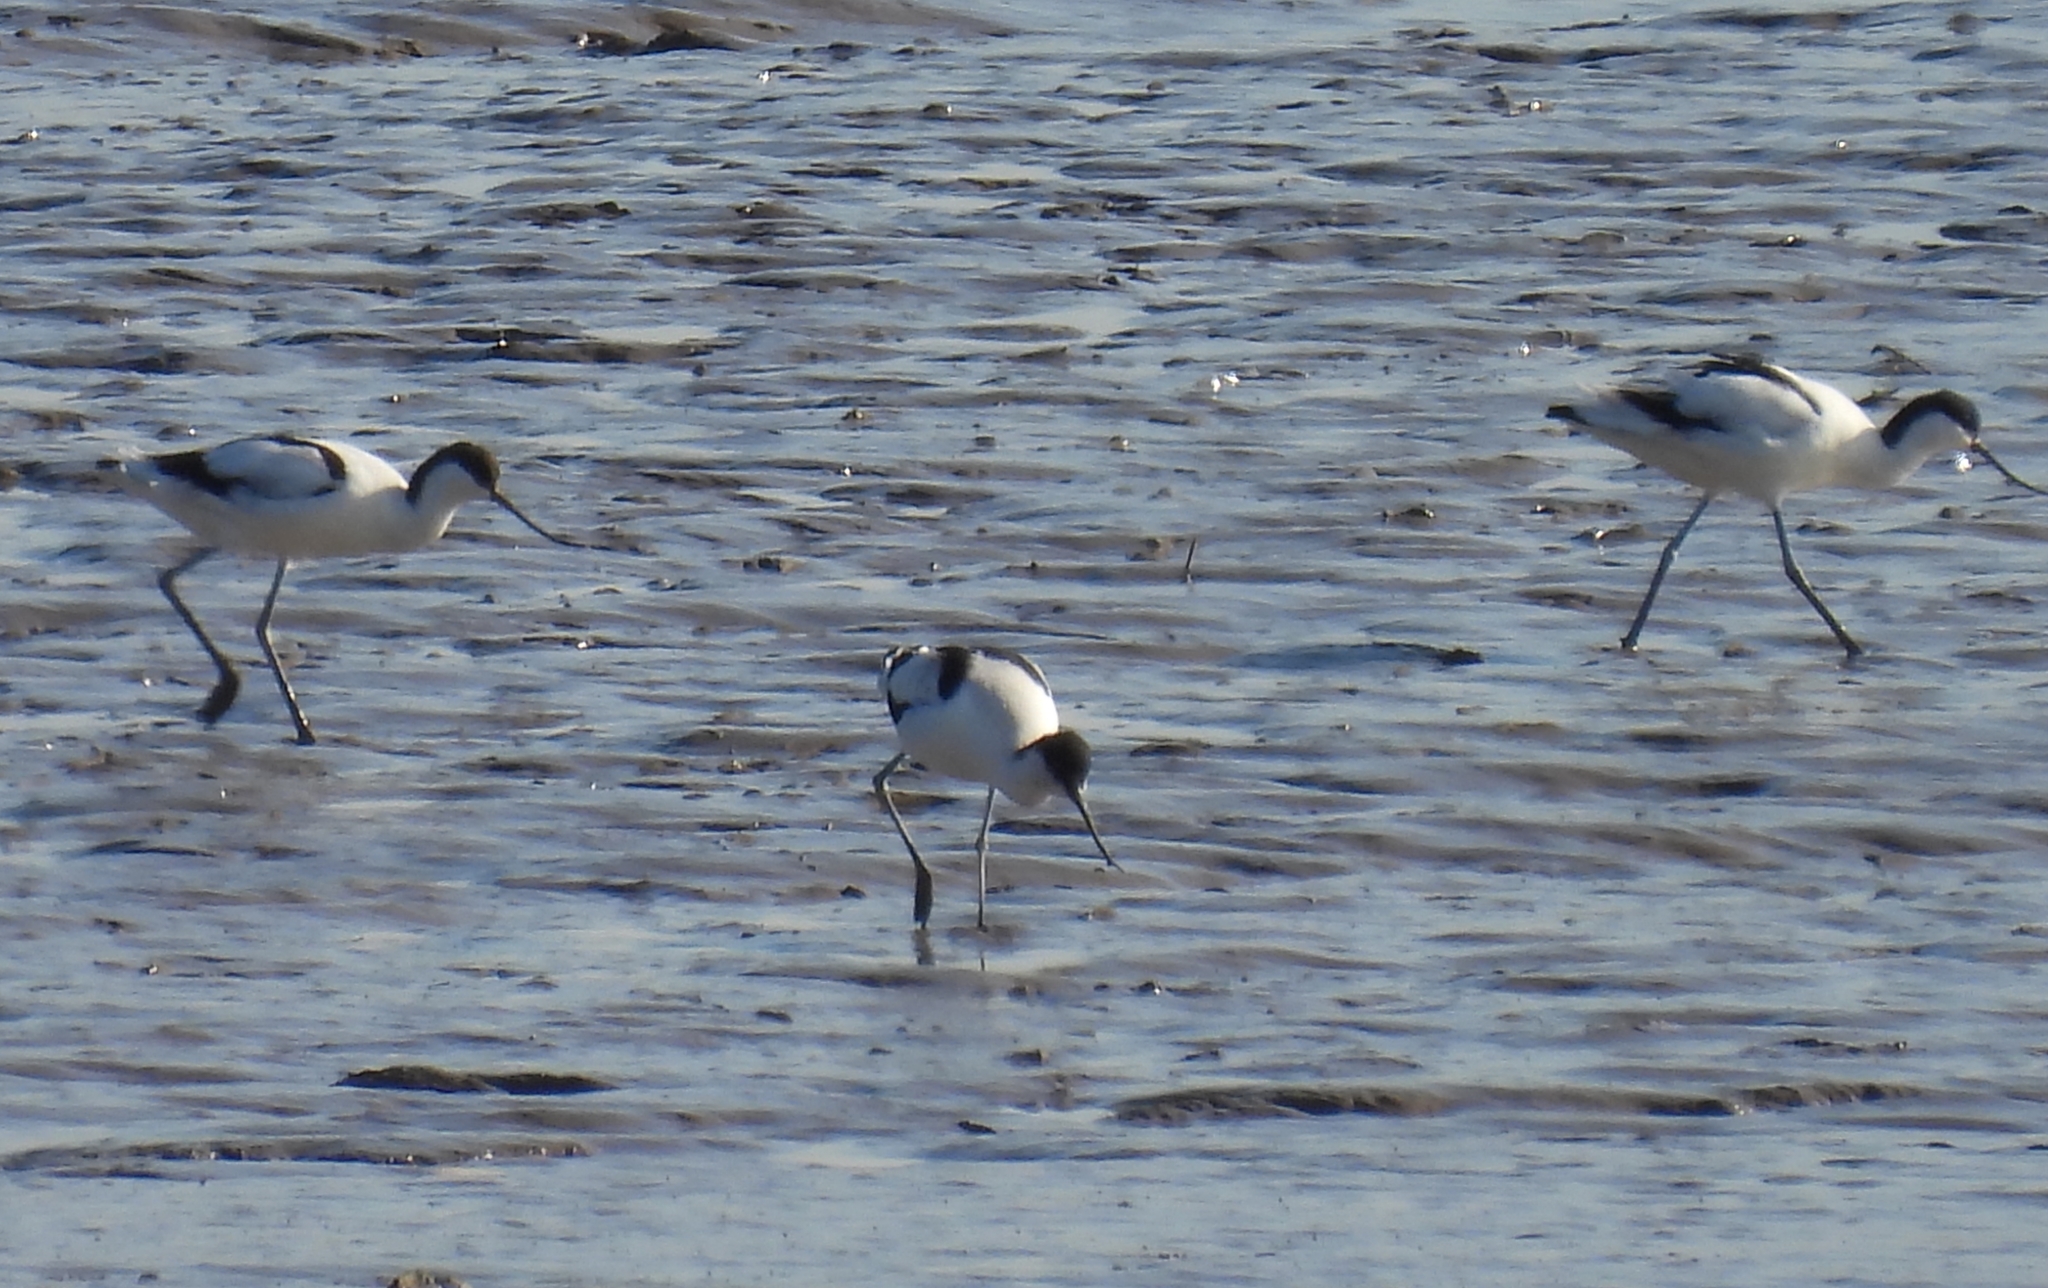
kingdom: Animalia
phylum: Chordata
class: Aves
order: Charadriiformes
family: Recurvirostridae
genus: Recurvirostra
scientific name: Recurvirostra avosetta
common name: Pied avocet
